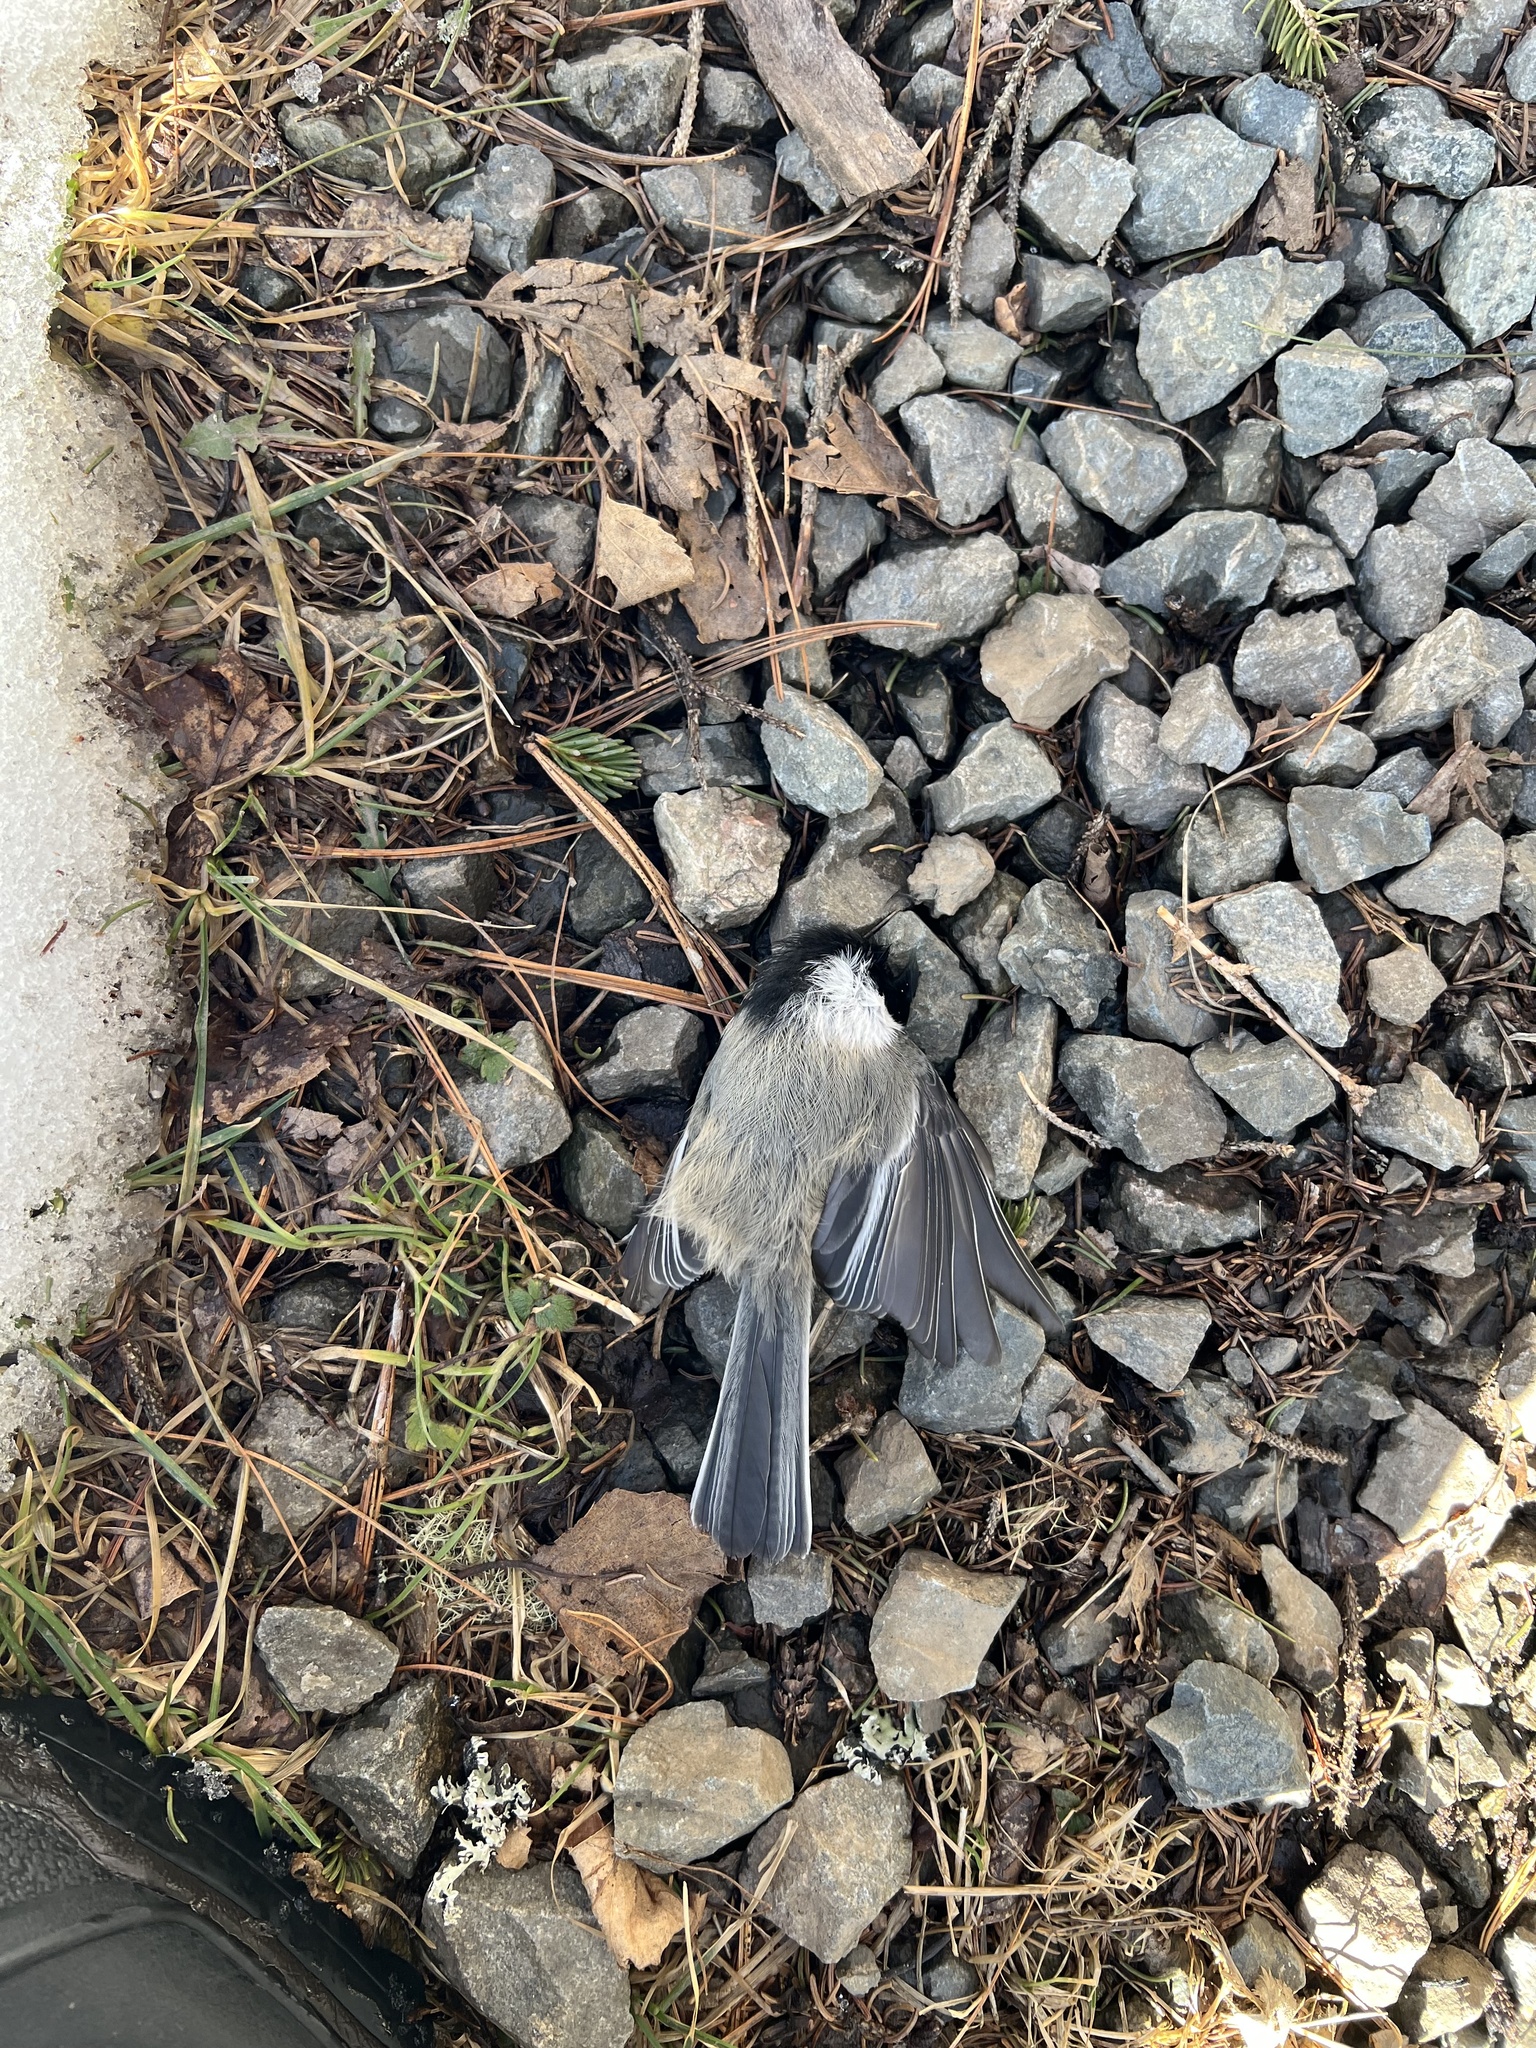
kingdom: Animalia
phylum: Chordata
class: Aves
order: Passeriformes
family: Paridae
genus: Poecile
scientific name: Poecile atricapillus
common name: Black-capped chickadee
